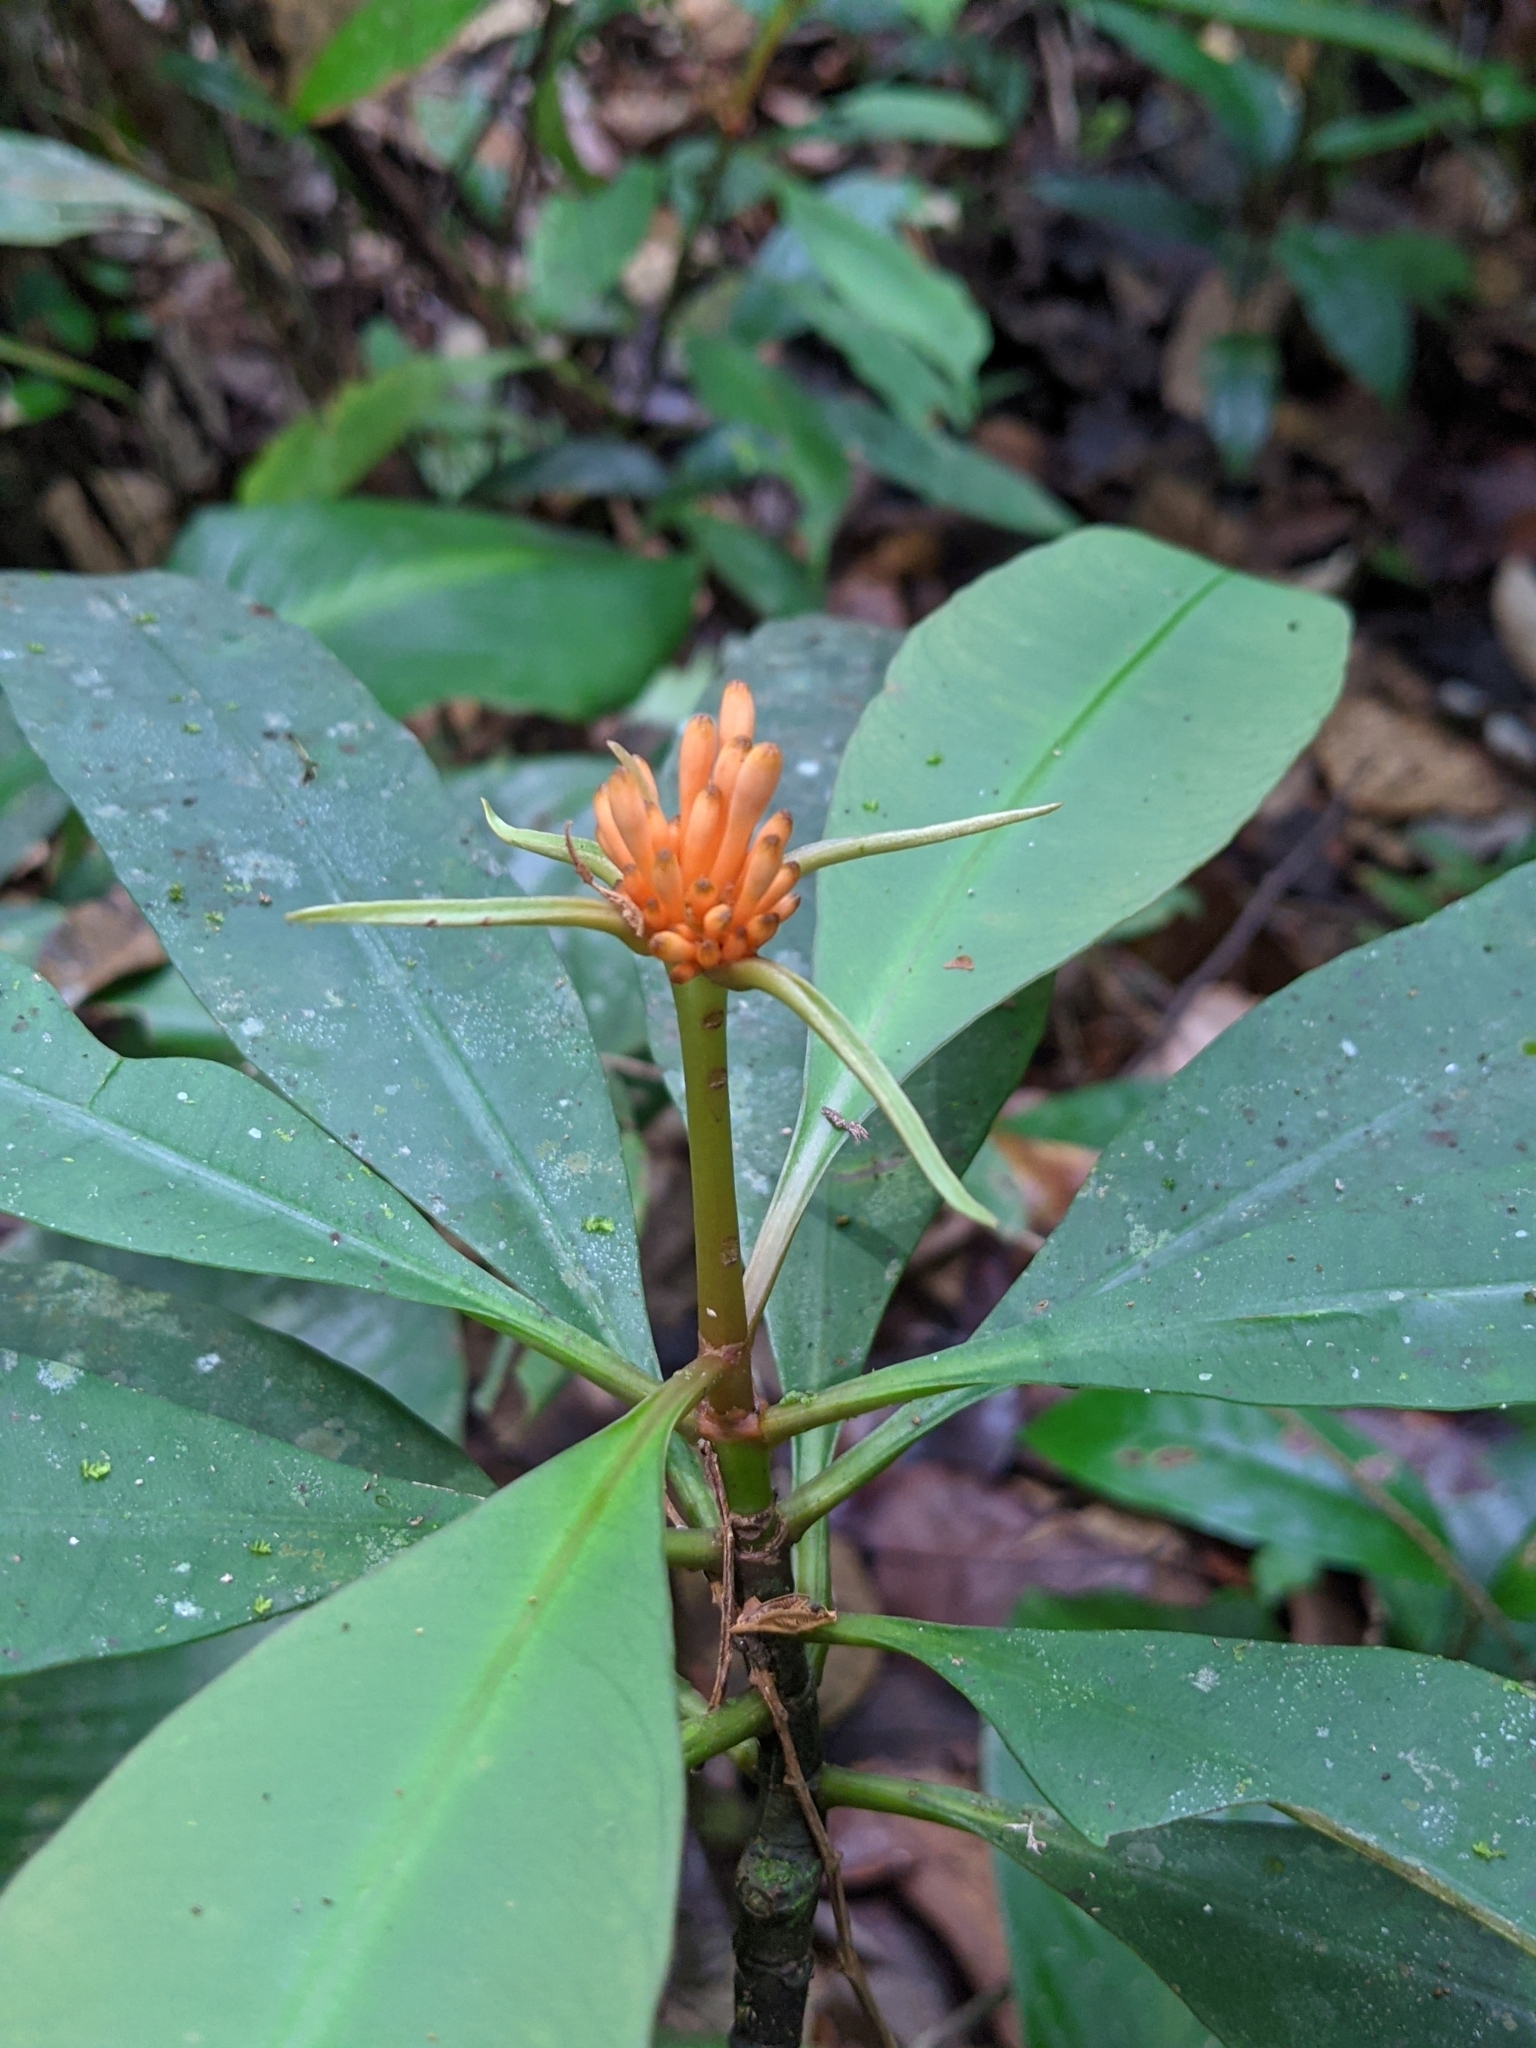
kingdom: Plantae
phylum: Tracheophyta
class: Magnoliopsida
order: Gentianales
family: Rubiaceae
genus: Carapichea
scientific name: Carapichea ligularis
